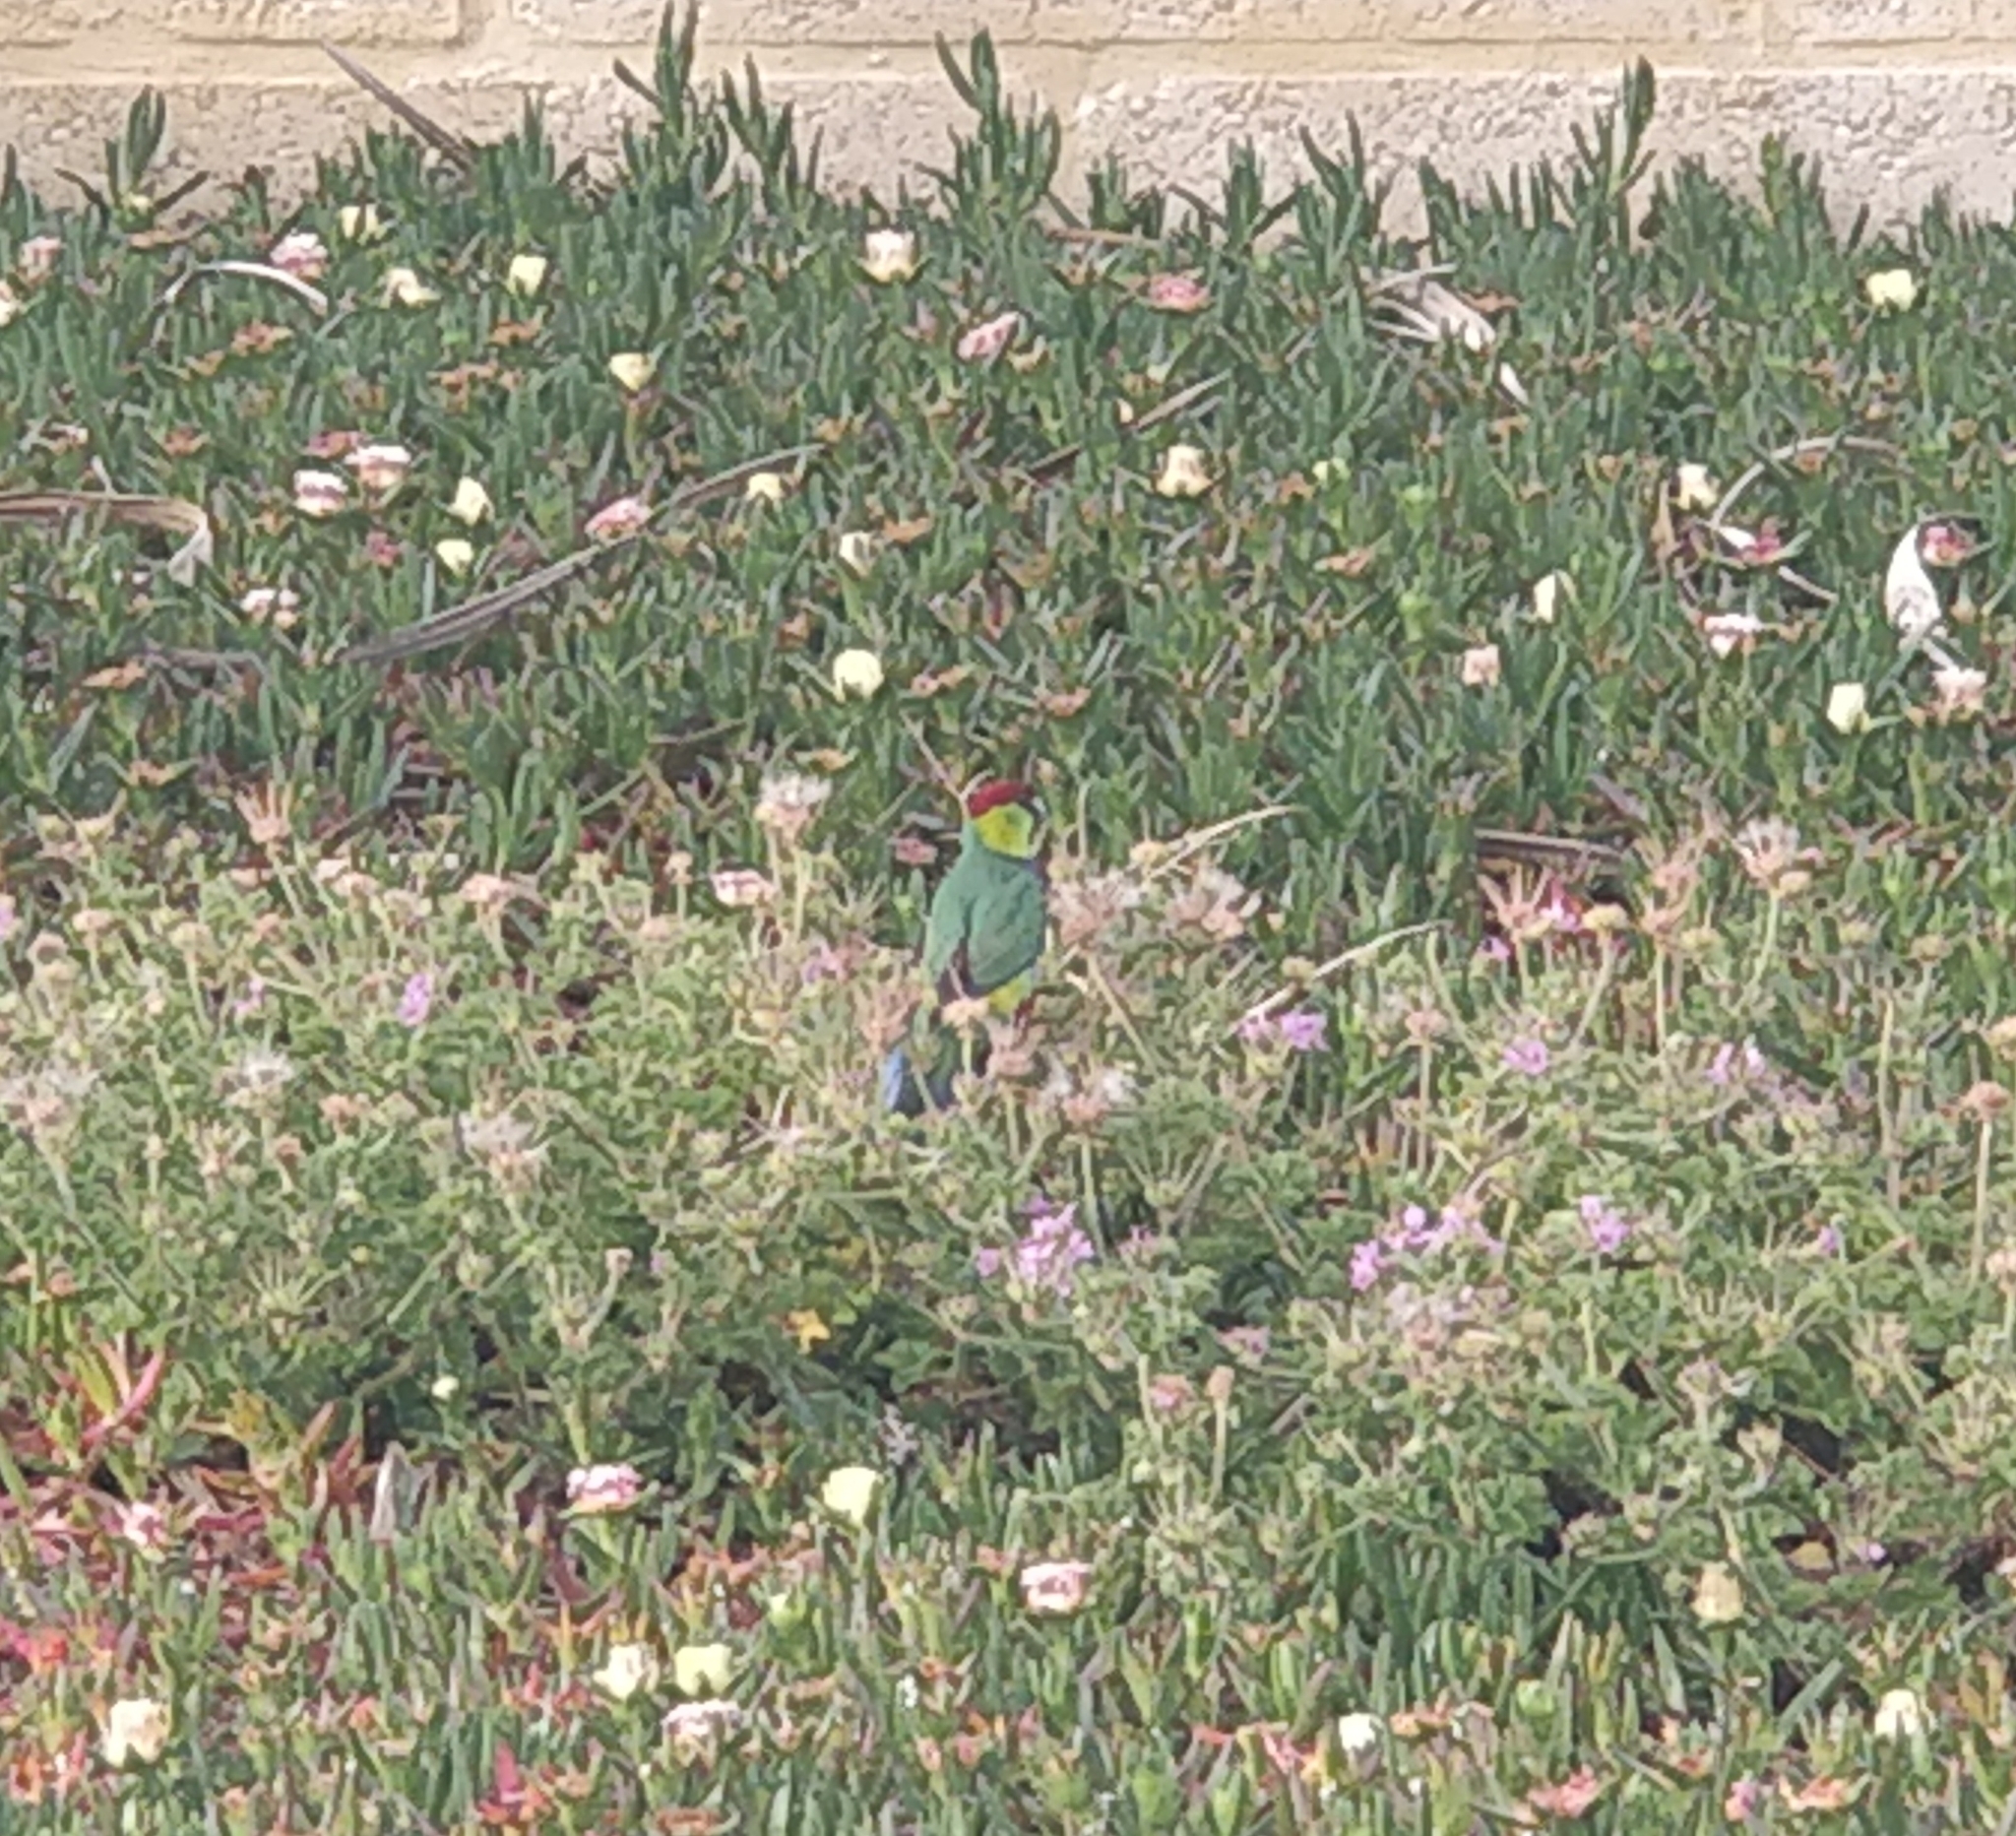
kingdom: Animalia
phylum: Chordata
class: Aves
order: Psittaciformes
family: Psittacidae
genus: Purpureicephalus
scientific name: Purpureicephalus spurius
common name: Red-capped parrot
